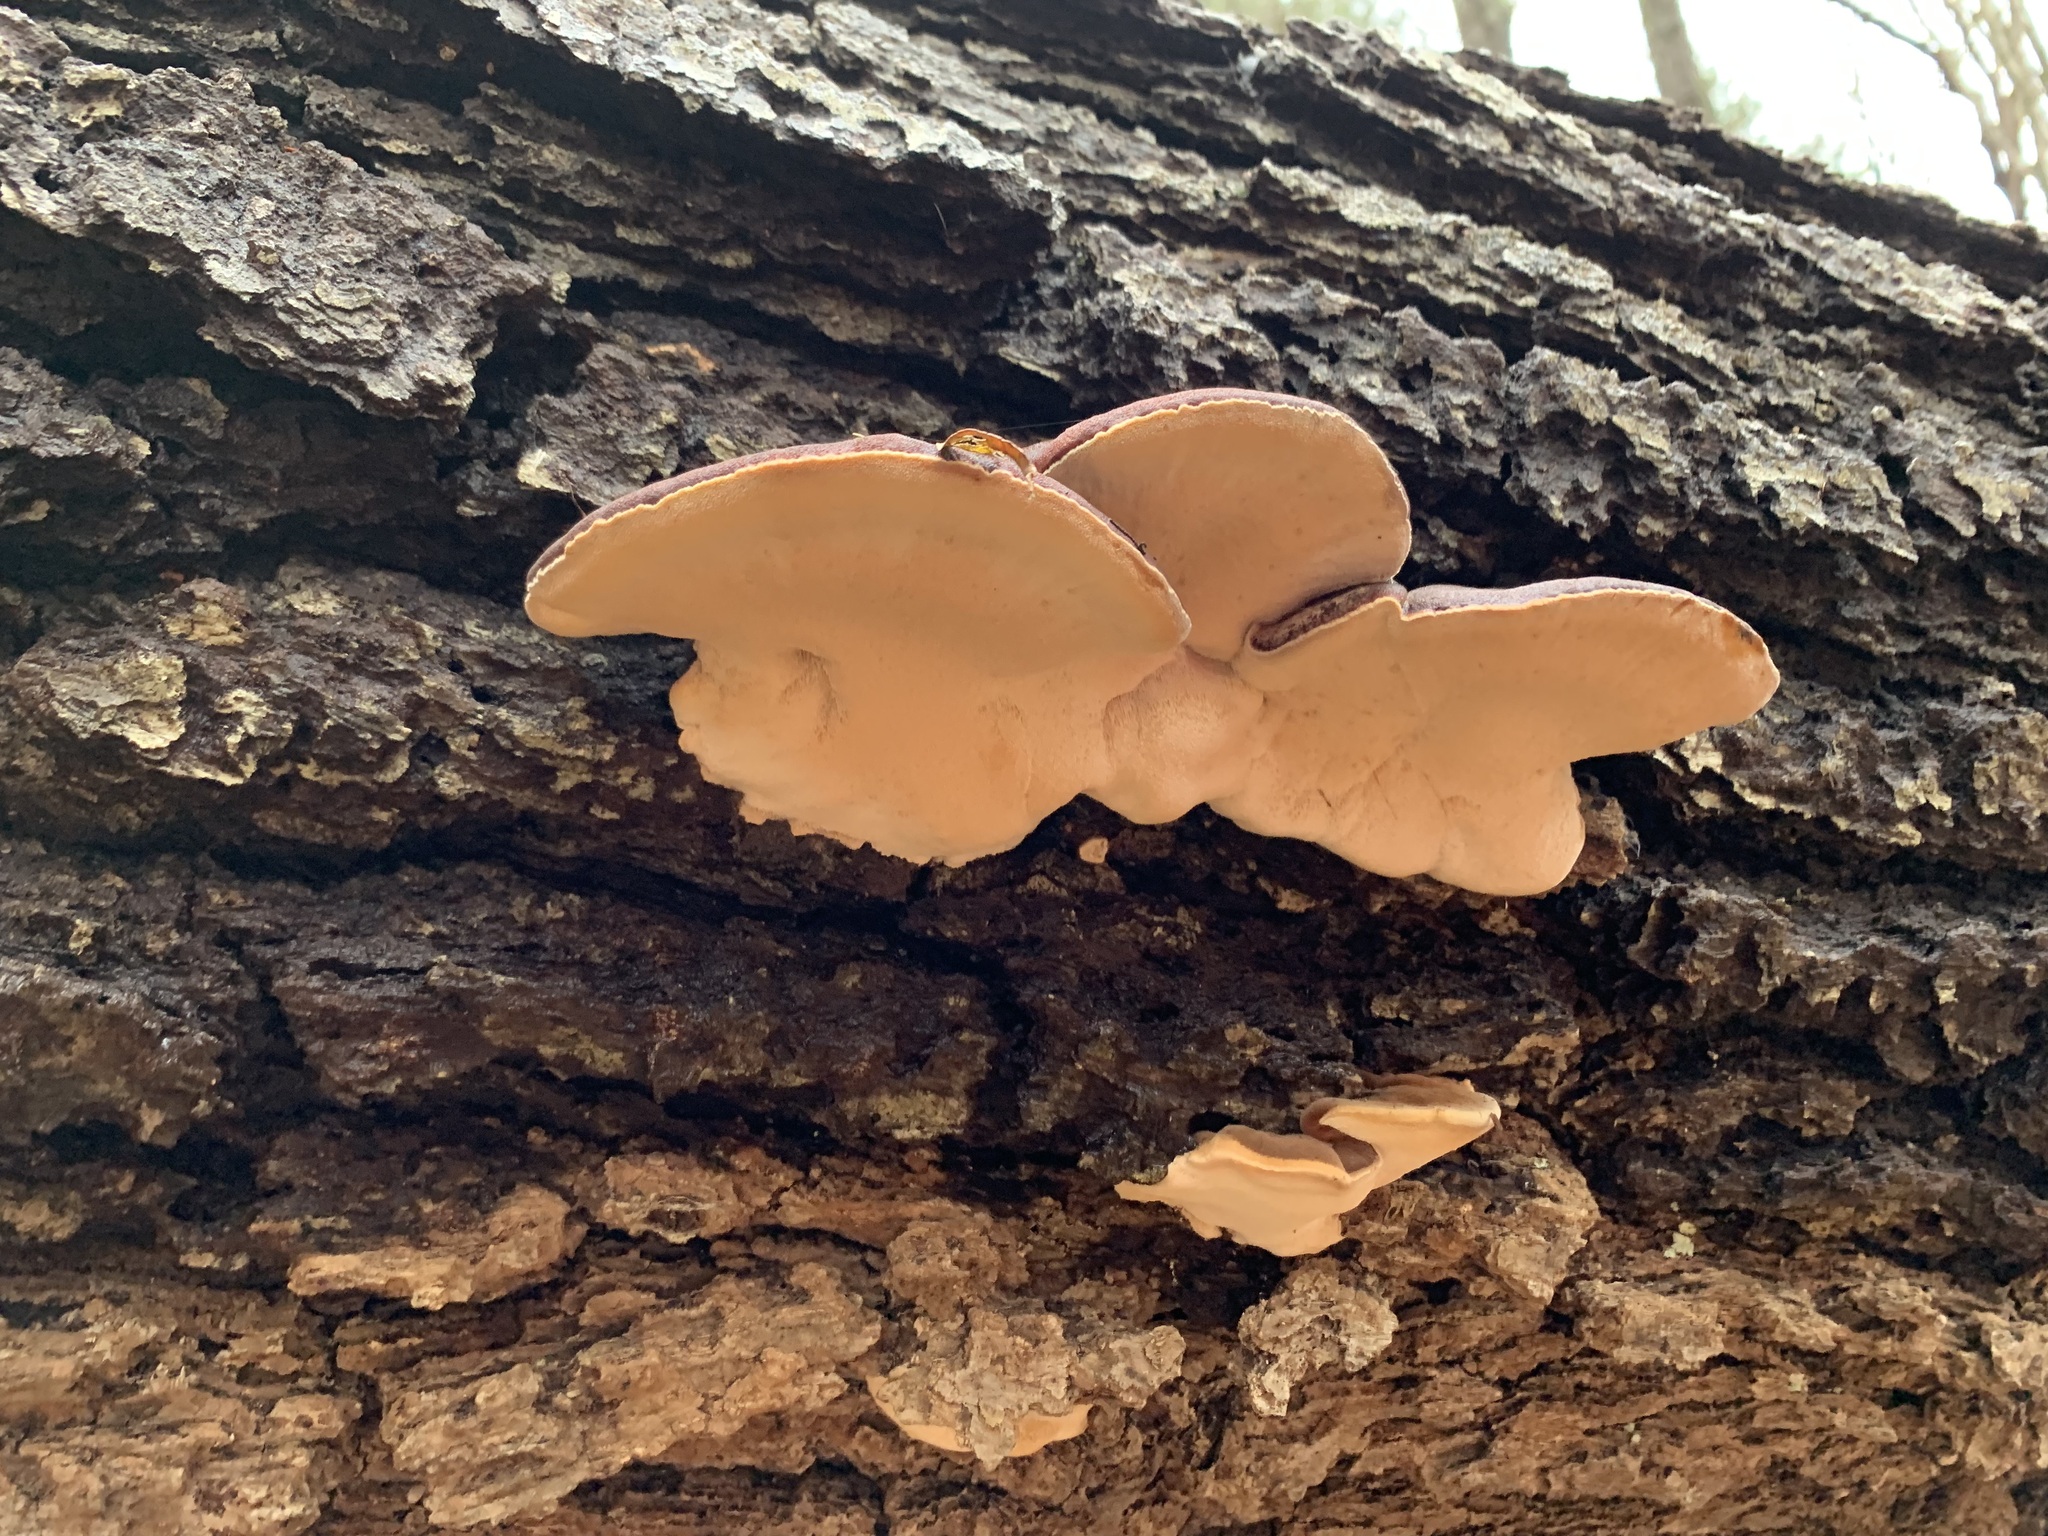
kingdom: Fungi
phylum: Basidiomycota
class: Agaricomycetes
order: Polyporales
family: Ischnodermataceae
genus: Ischnoderma
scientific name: Ischnoderma resinosum
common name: Resinous polypore
